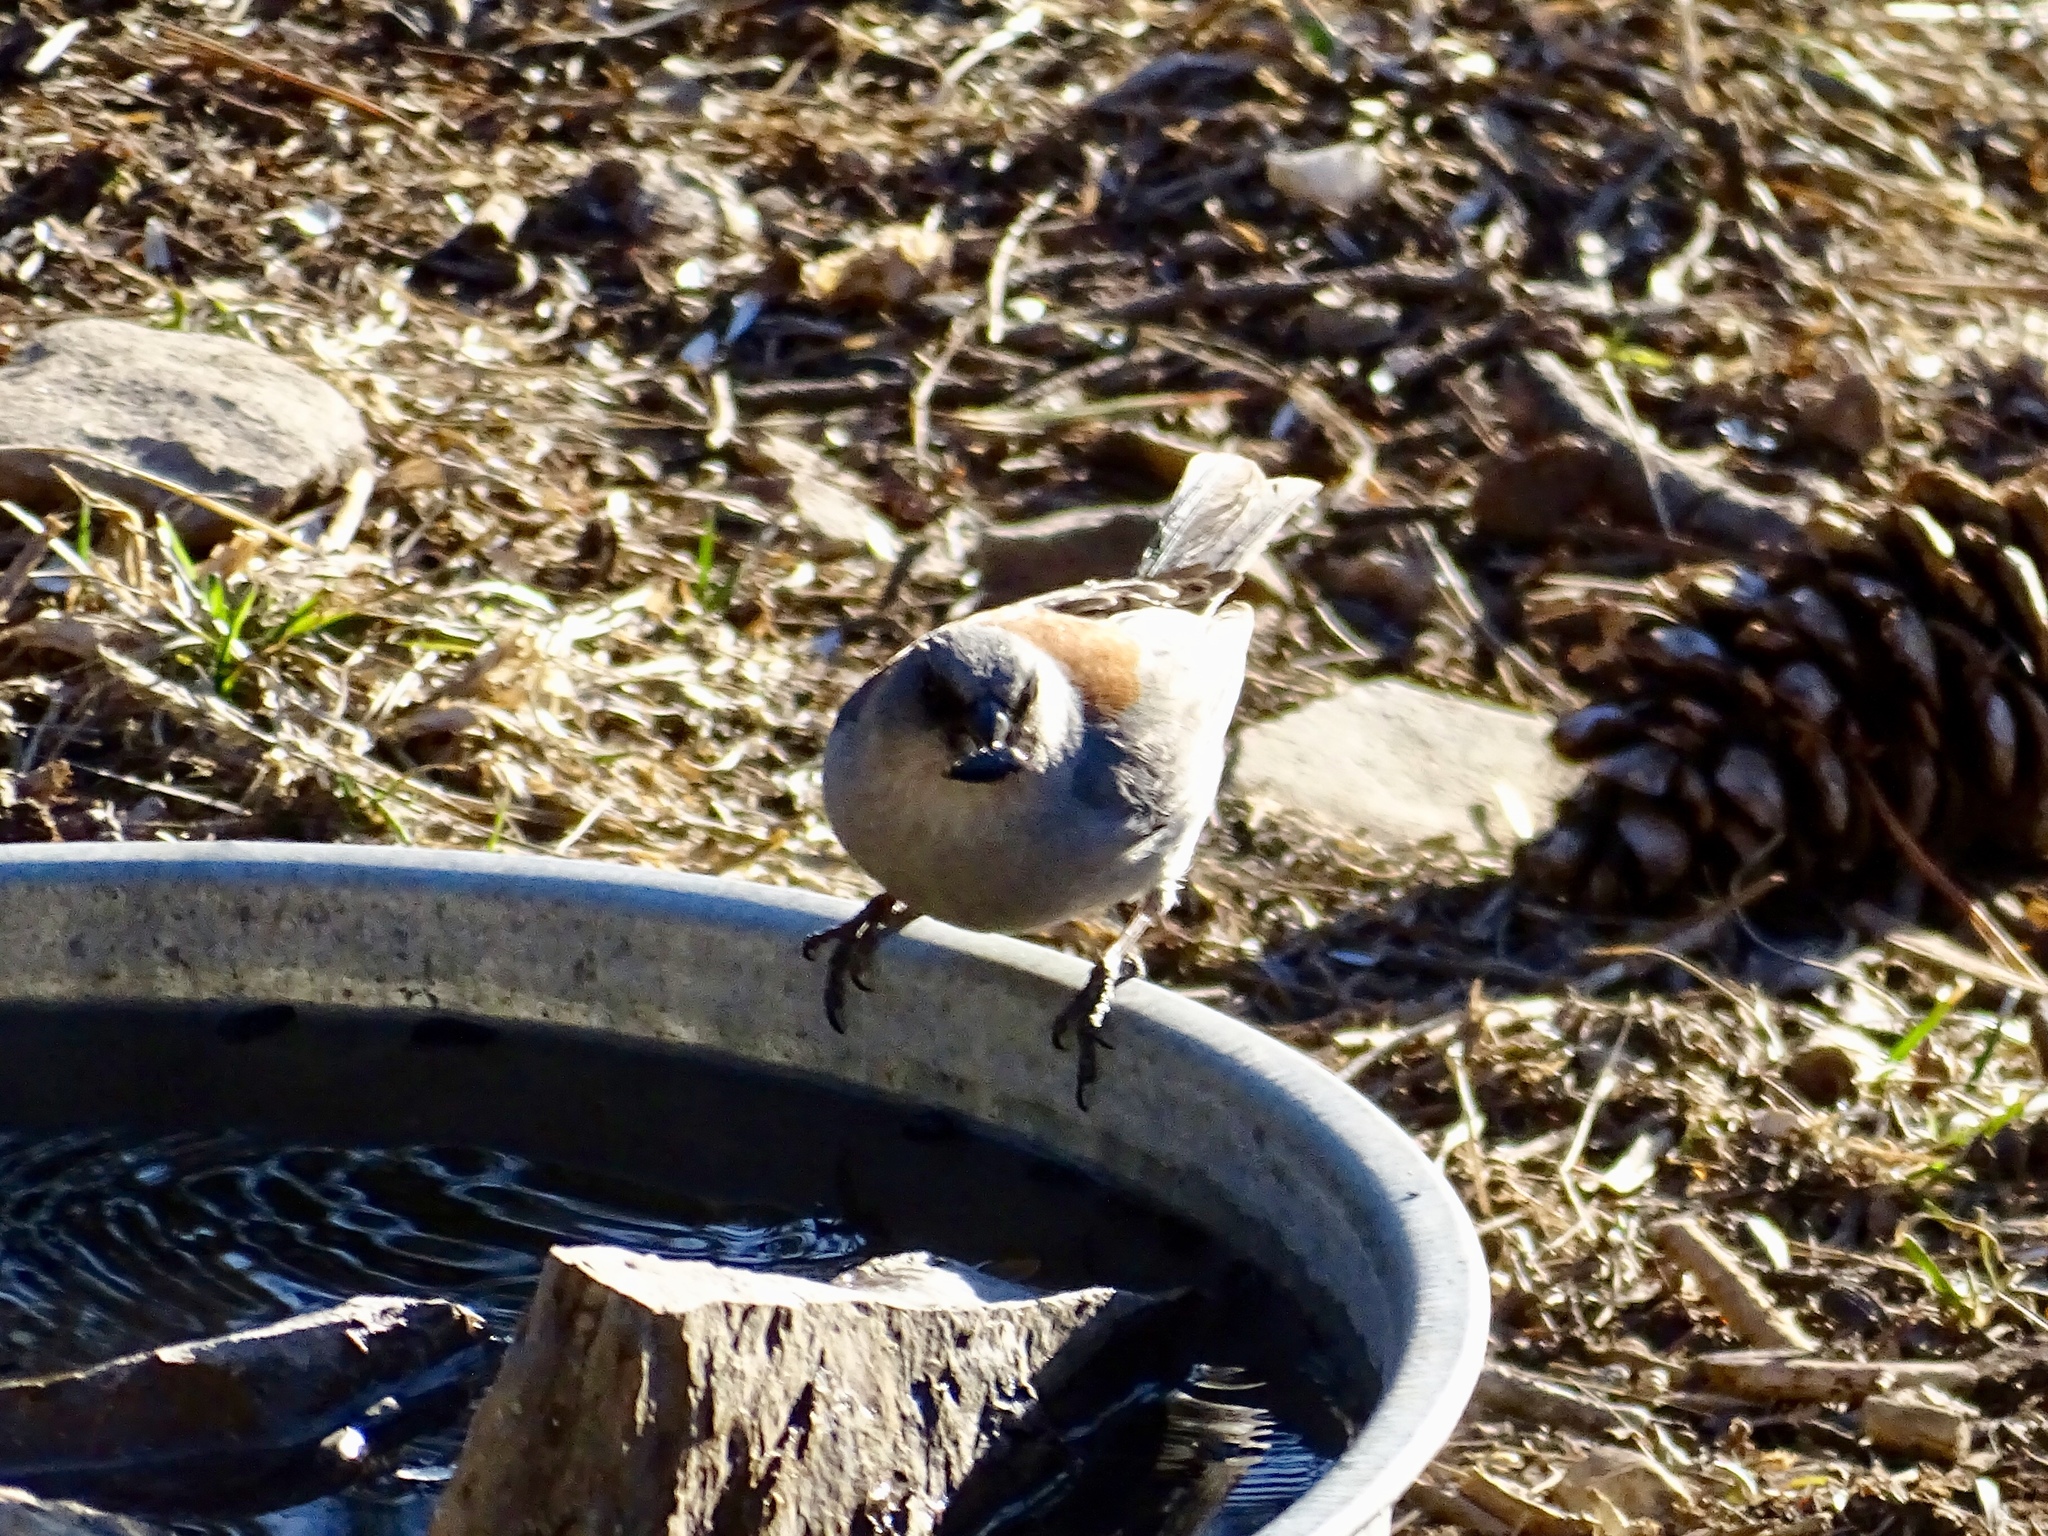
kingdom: Animalia
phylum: Chordata
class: Aves
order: Passeriformes
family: Passerellidae
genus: Junco
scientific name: Junco hyemalis
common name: Dark-eyed junco
